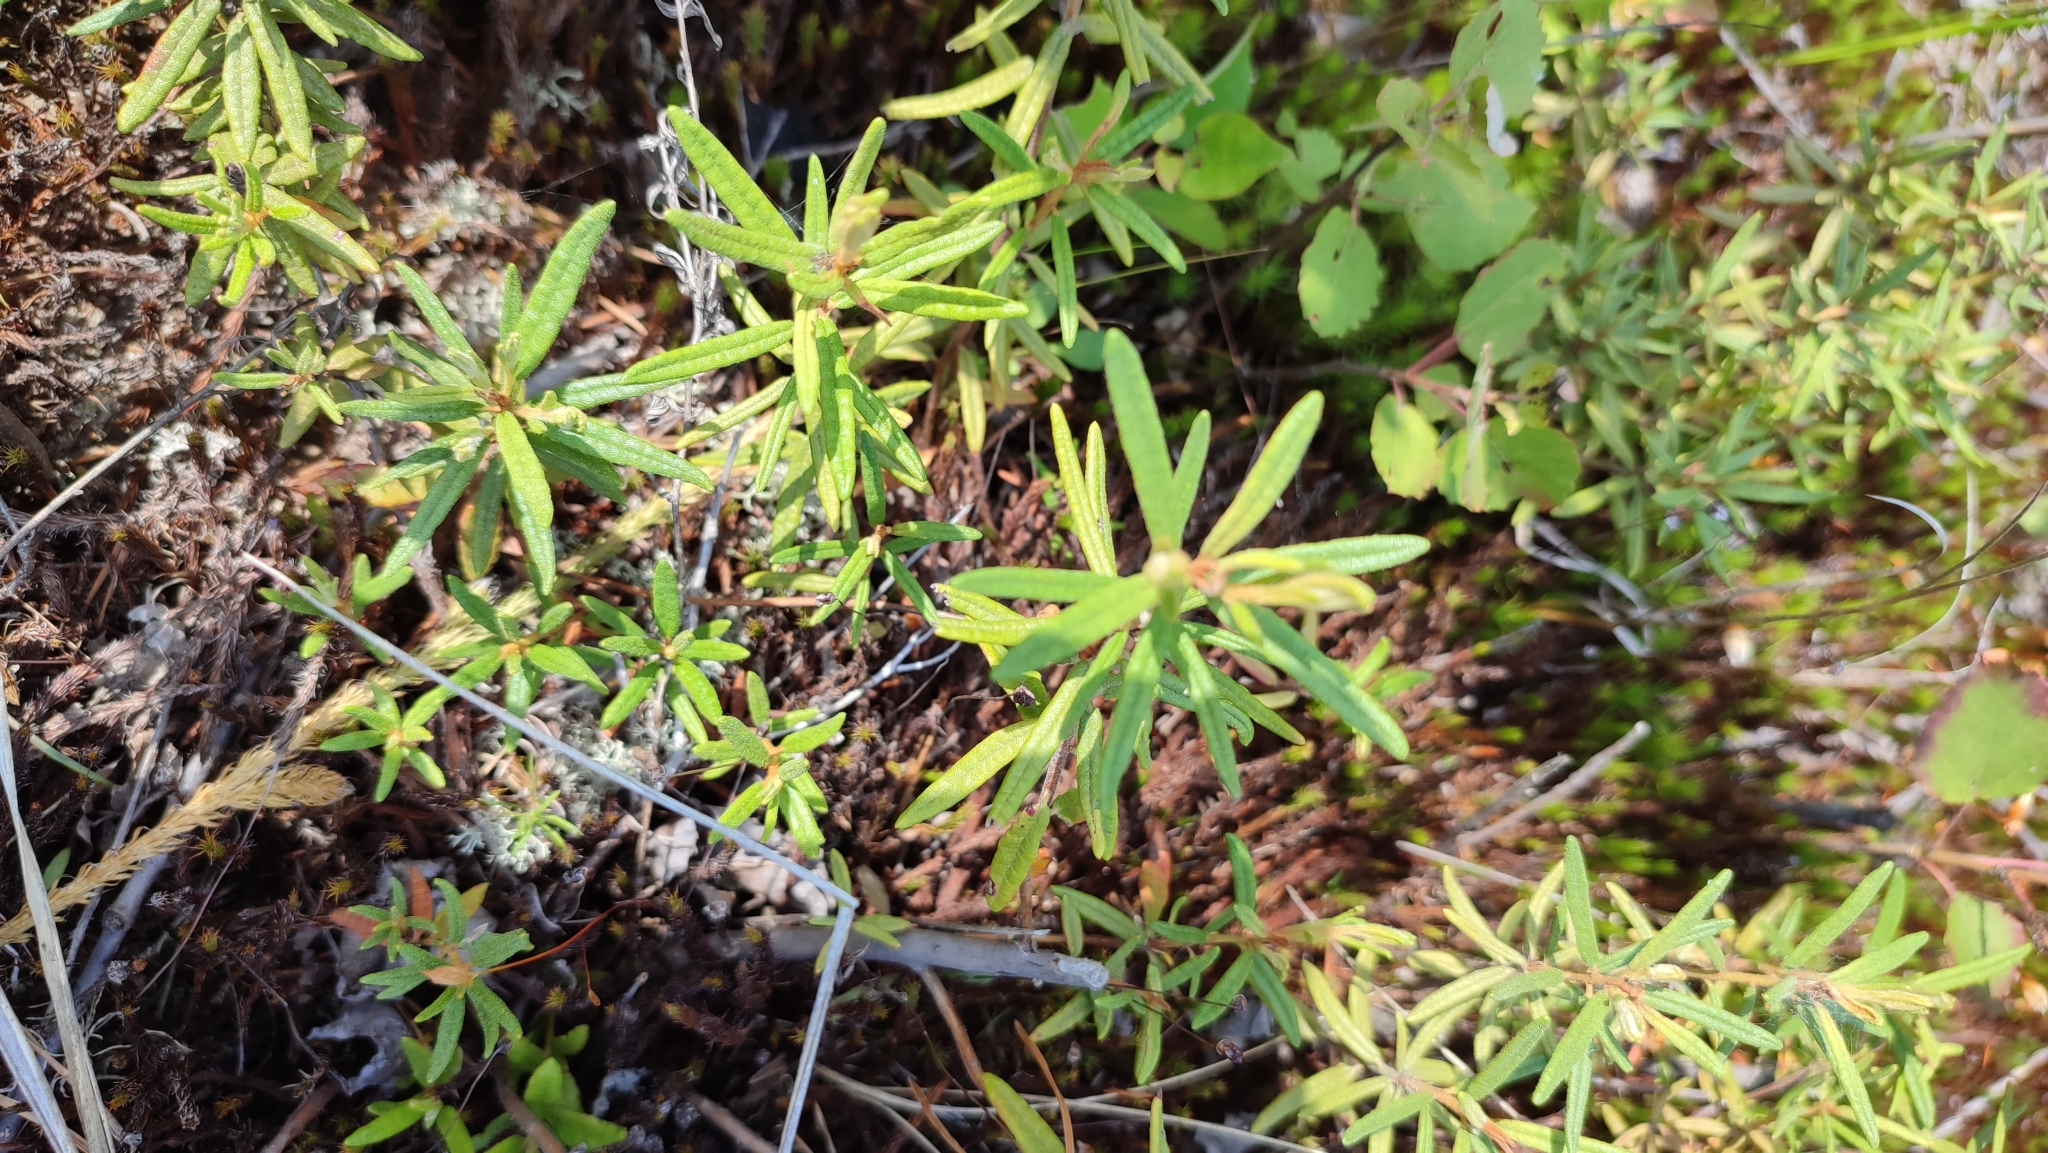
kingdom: Plantae
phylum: Tracheophyta
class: Magnoliopsida
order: Ericales
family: Ericaceae
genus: Rhododendron
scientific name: Rhododendron tomentosum
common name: Marsh labrador tea
